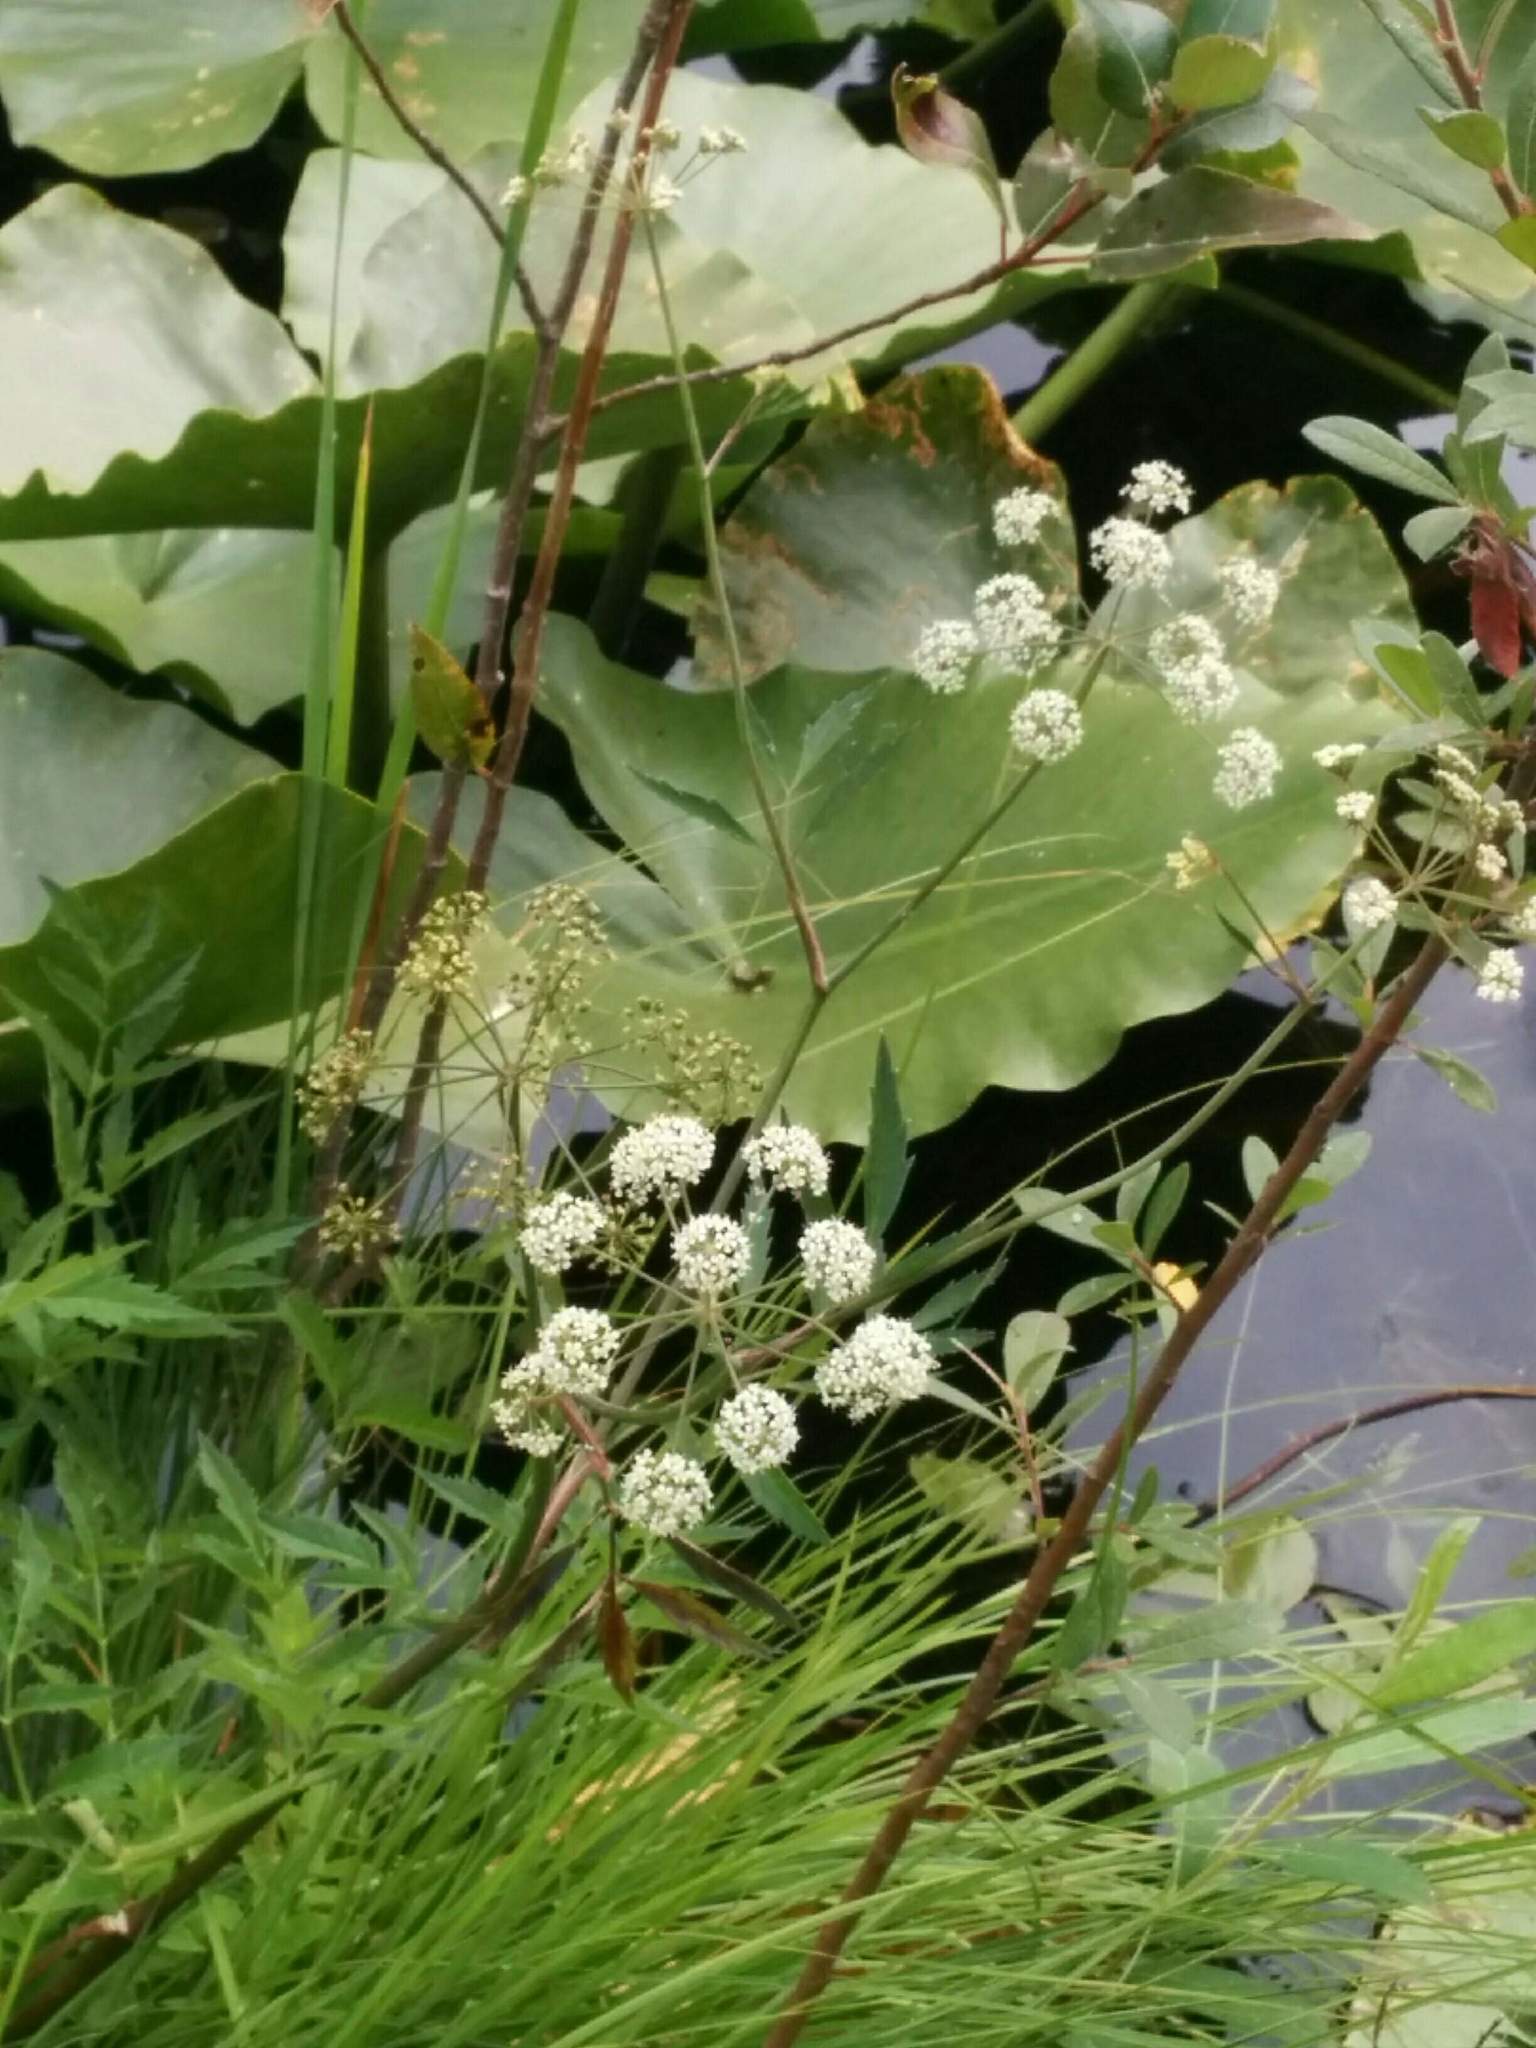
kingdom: Plantae
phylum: Tracheophyta
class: Magnoliopsida
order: Apiales
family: Apiaceae
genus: Cicuta
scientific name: Cicuta douglasii
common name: Western water-hemlock
